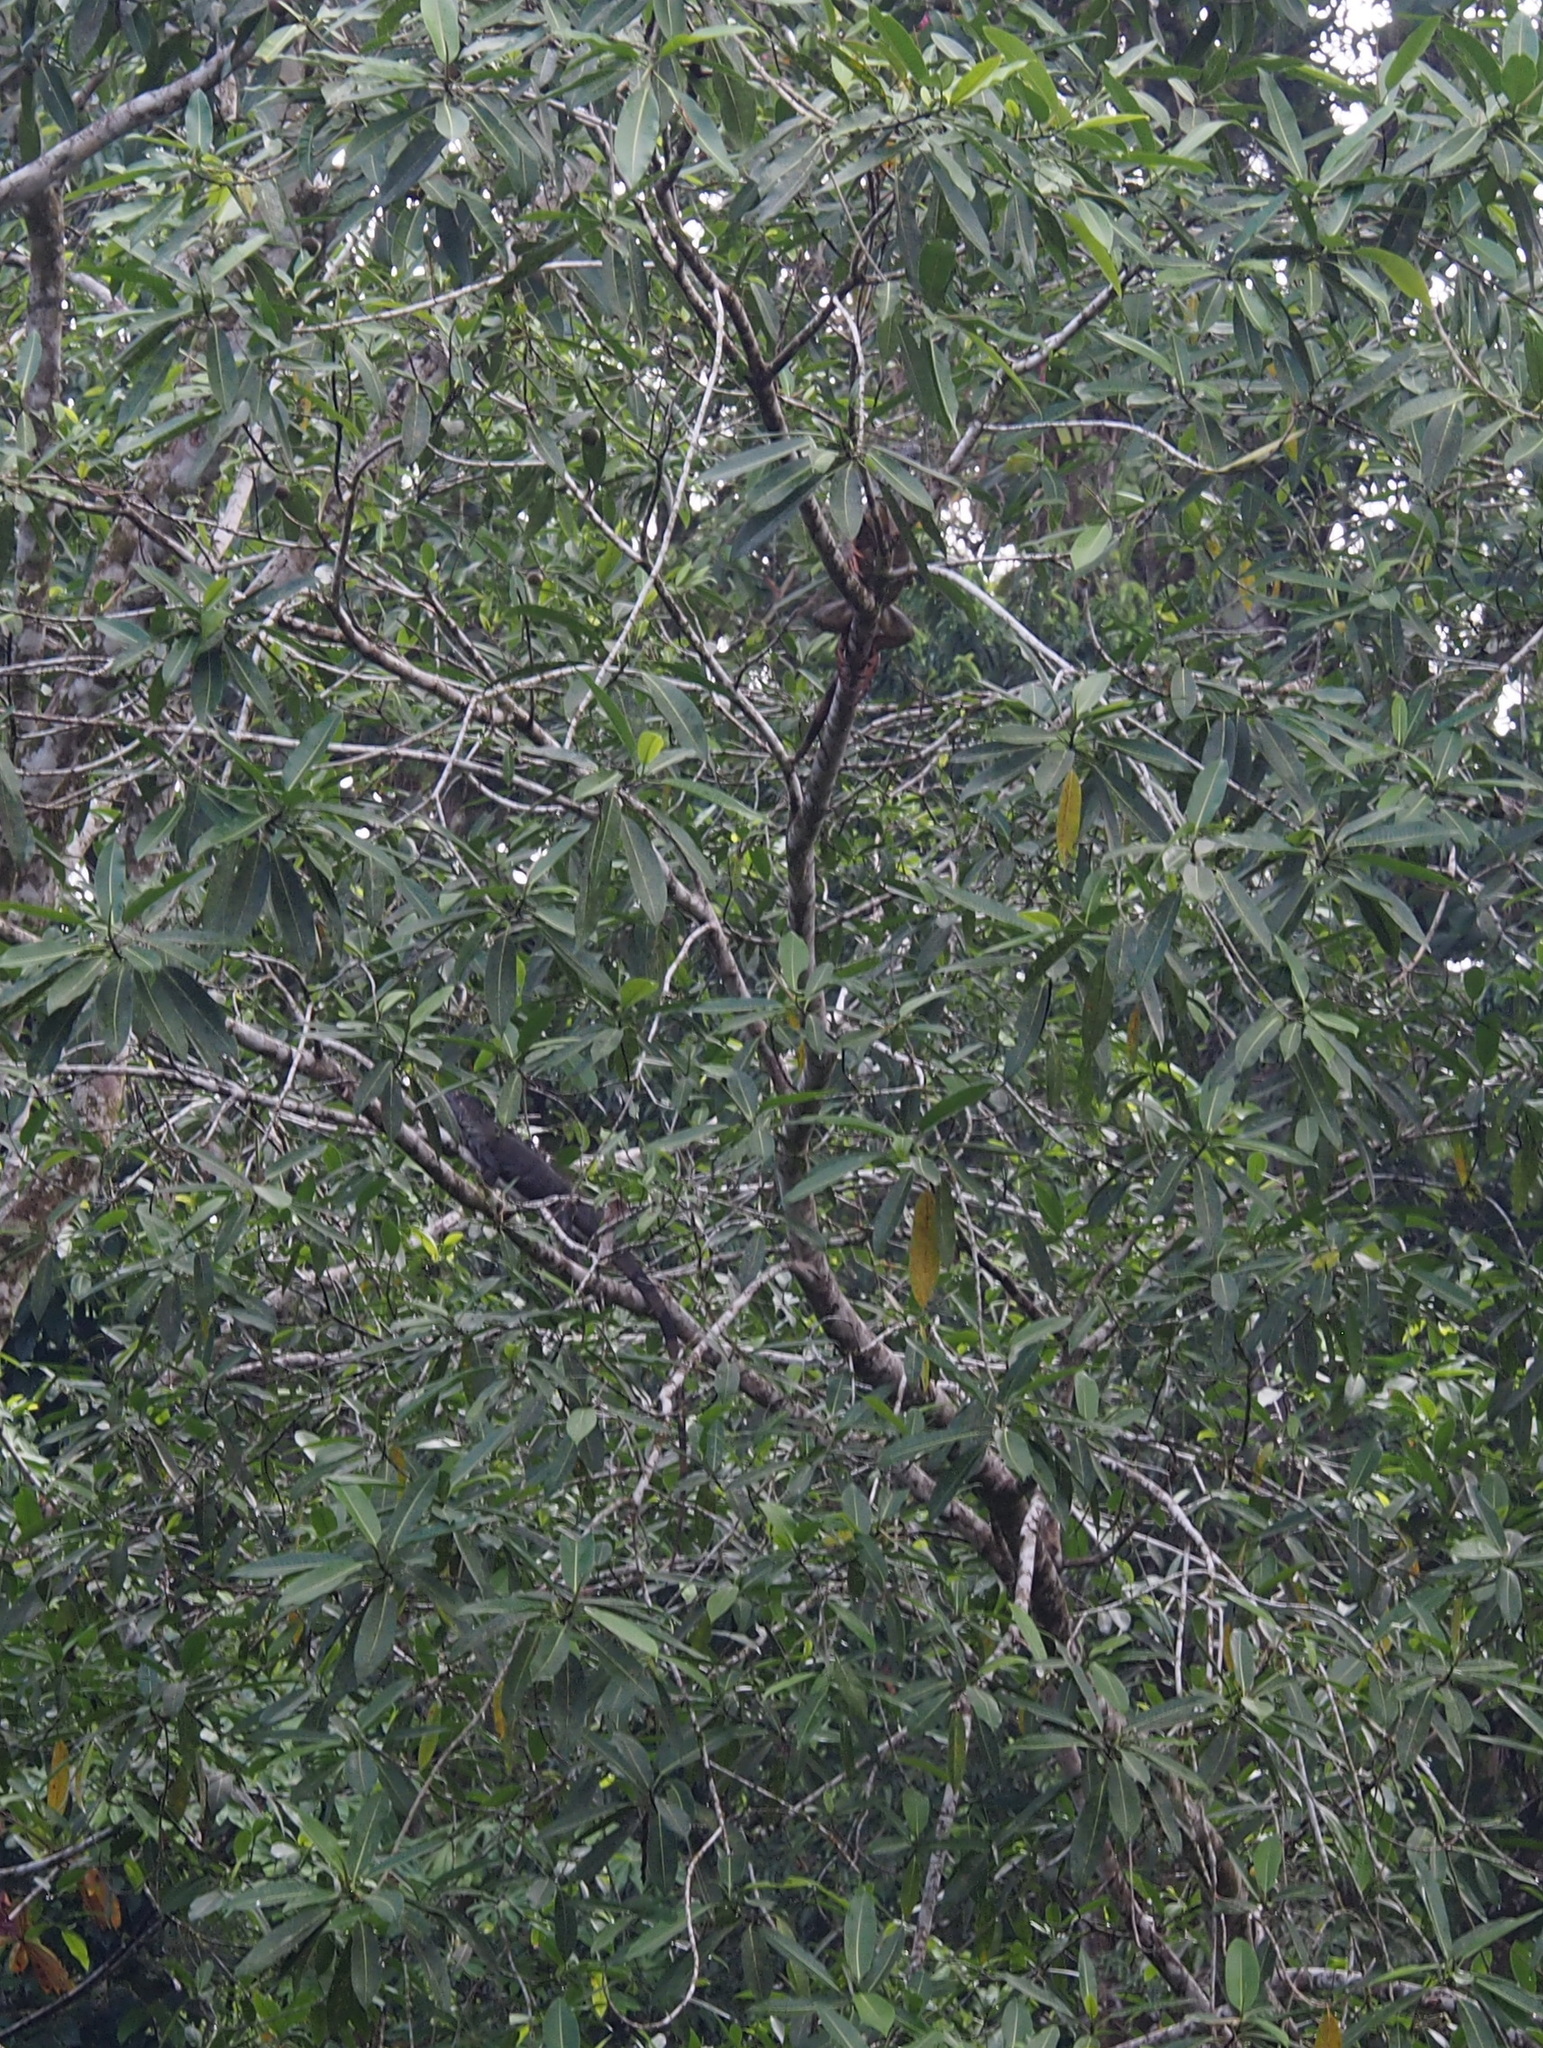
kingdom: Animalia
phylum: Chordata
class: Squamata
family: Iguanidae
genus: Iguana
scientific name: Iguana iguana
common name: Green iguana
